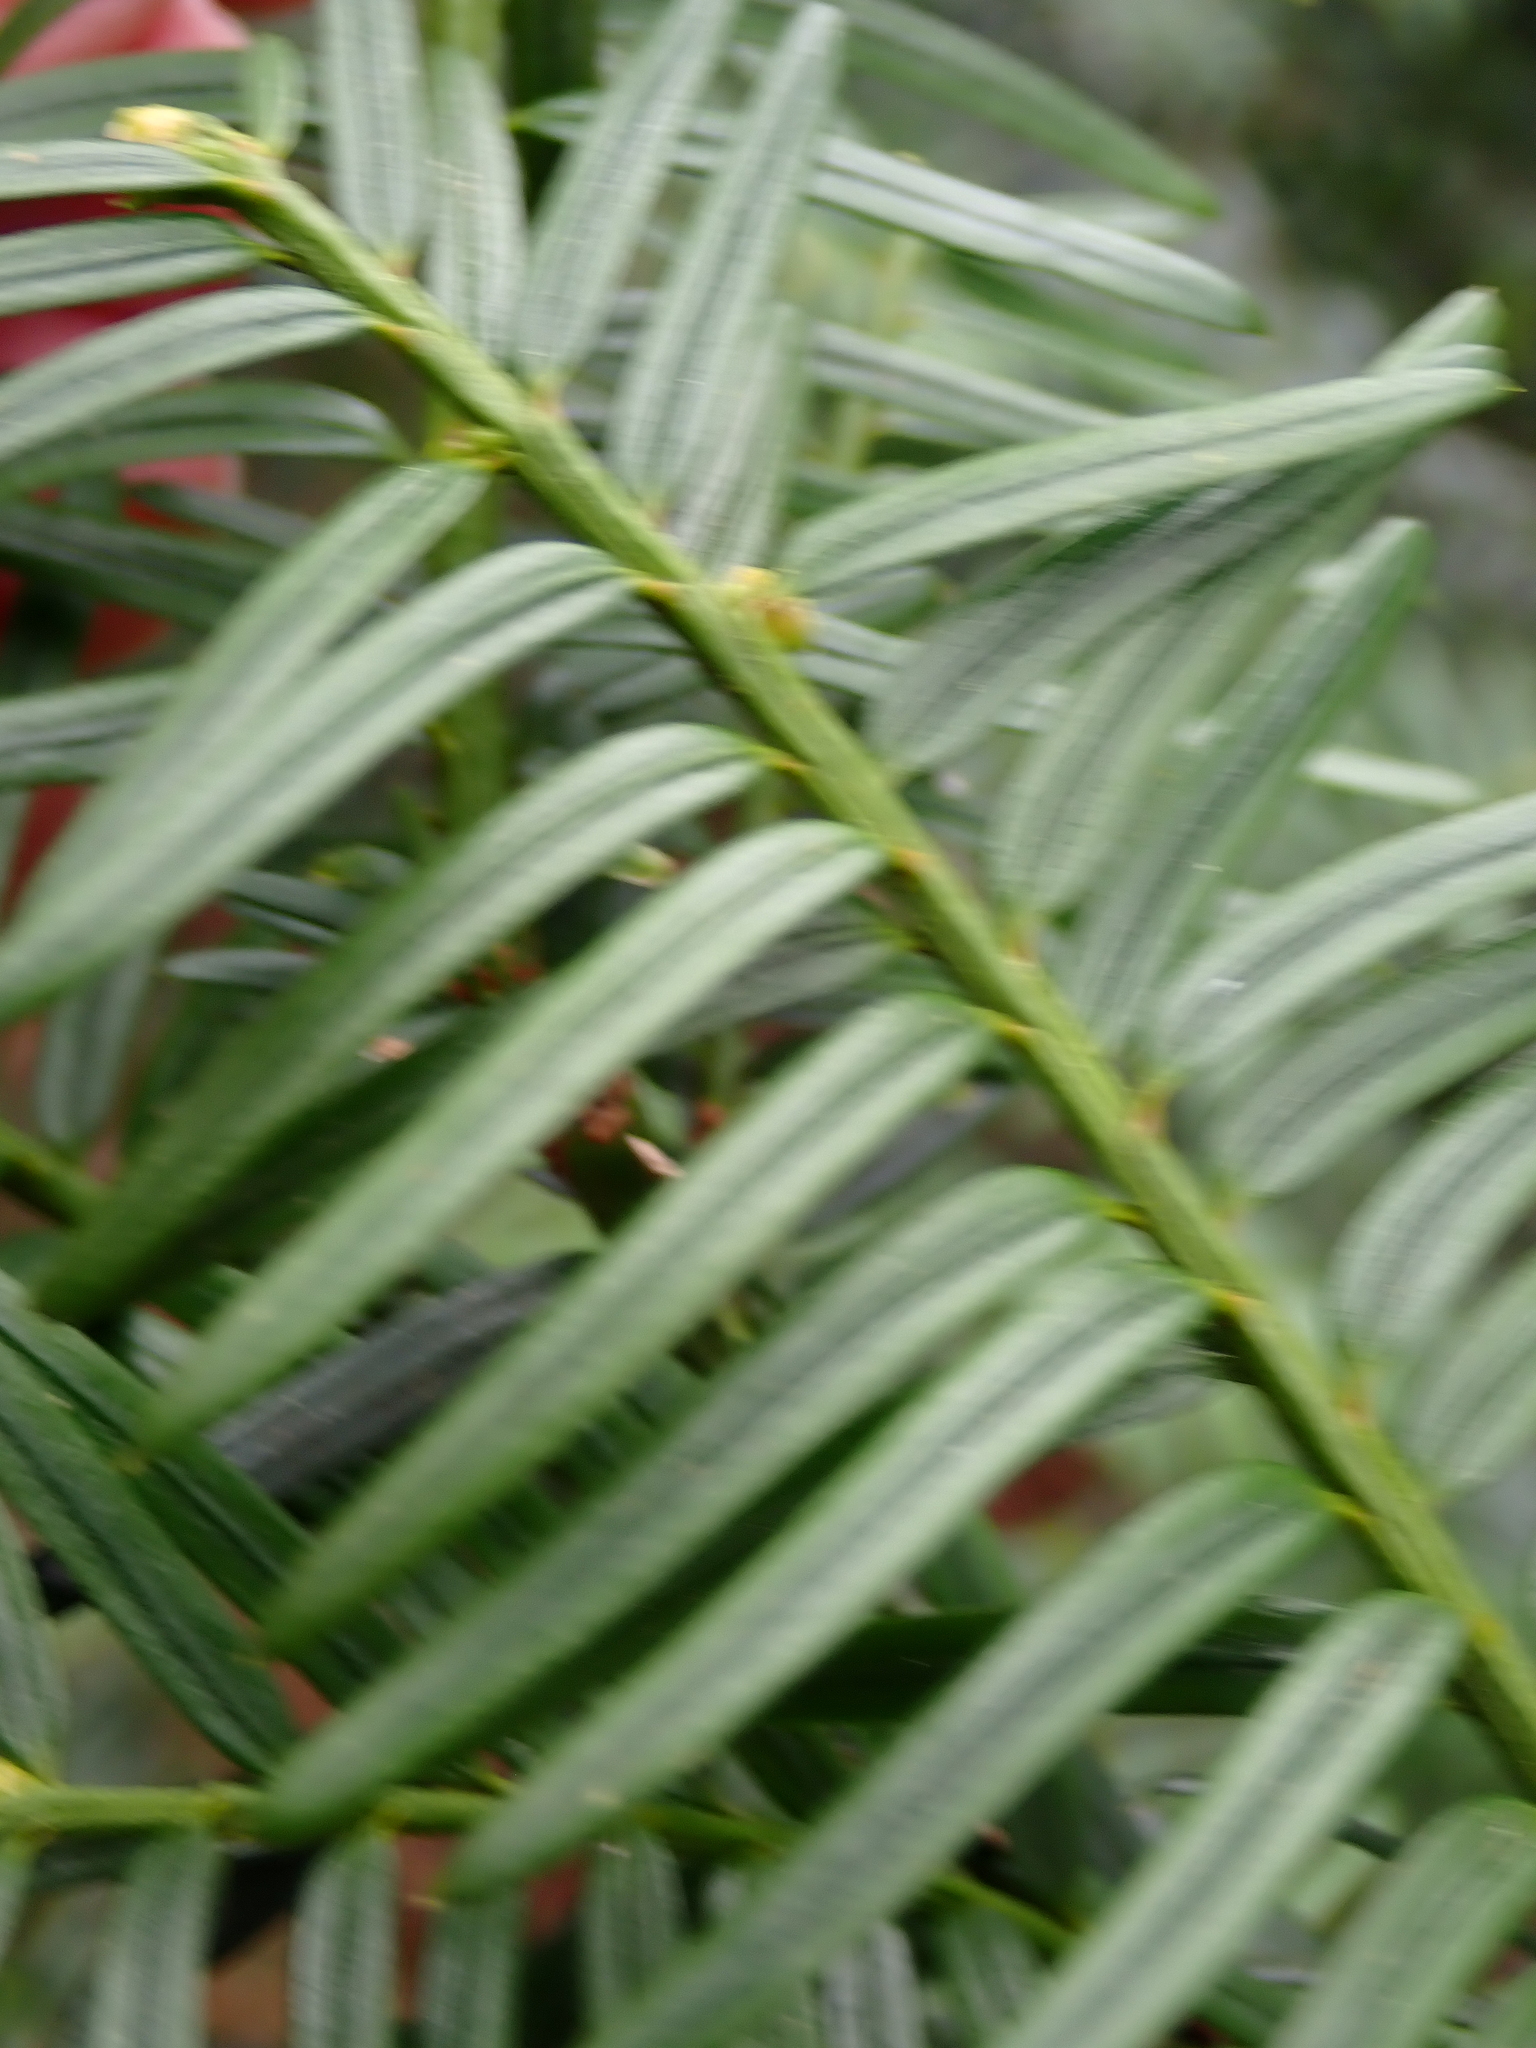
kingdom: Plantae
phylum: Tracheophyta
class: Pinopsida
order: Pinales
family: Taxaceae
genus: Taxus
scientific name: Taxus baccata
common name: Yew
